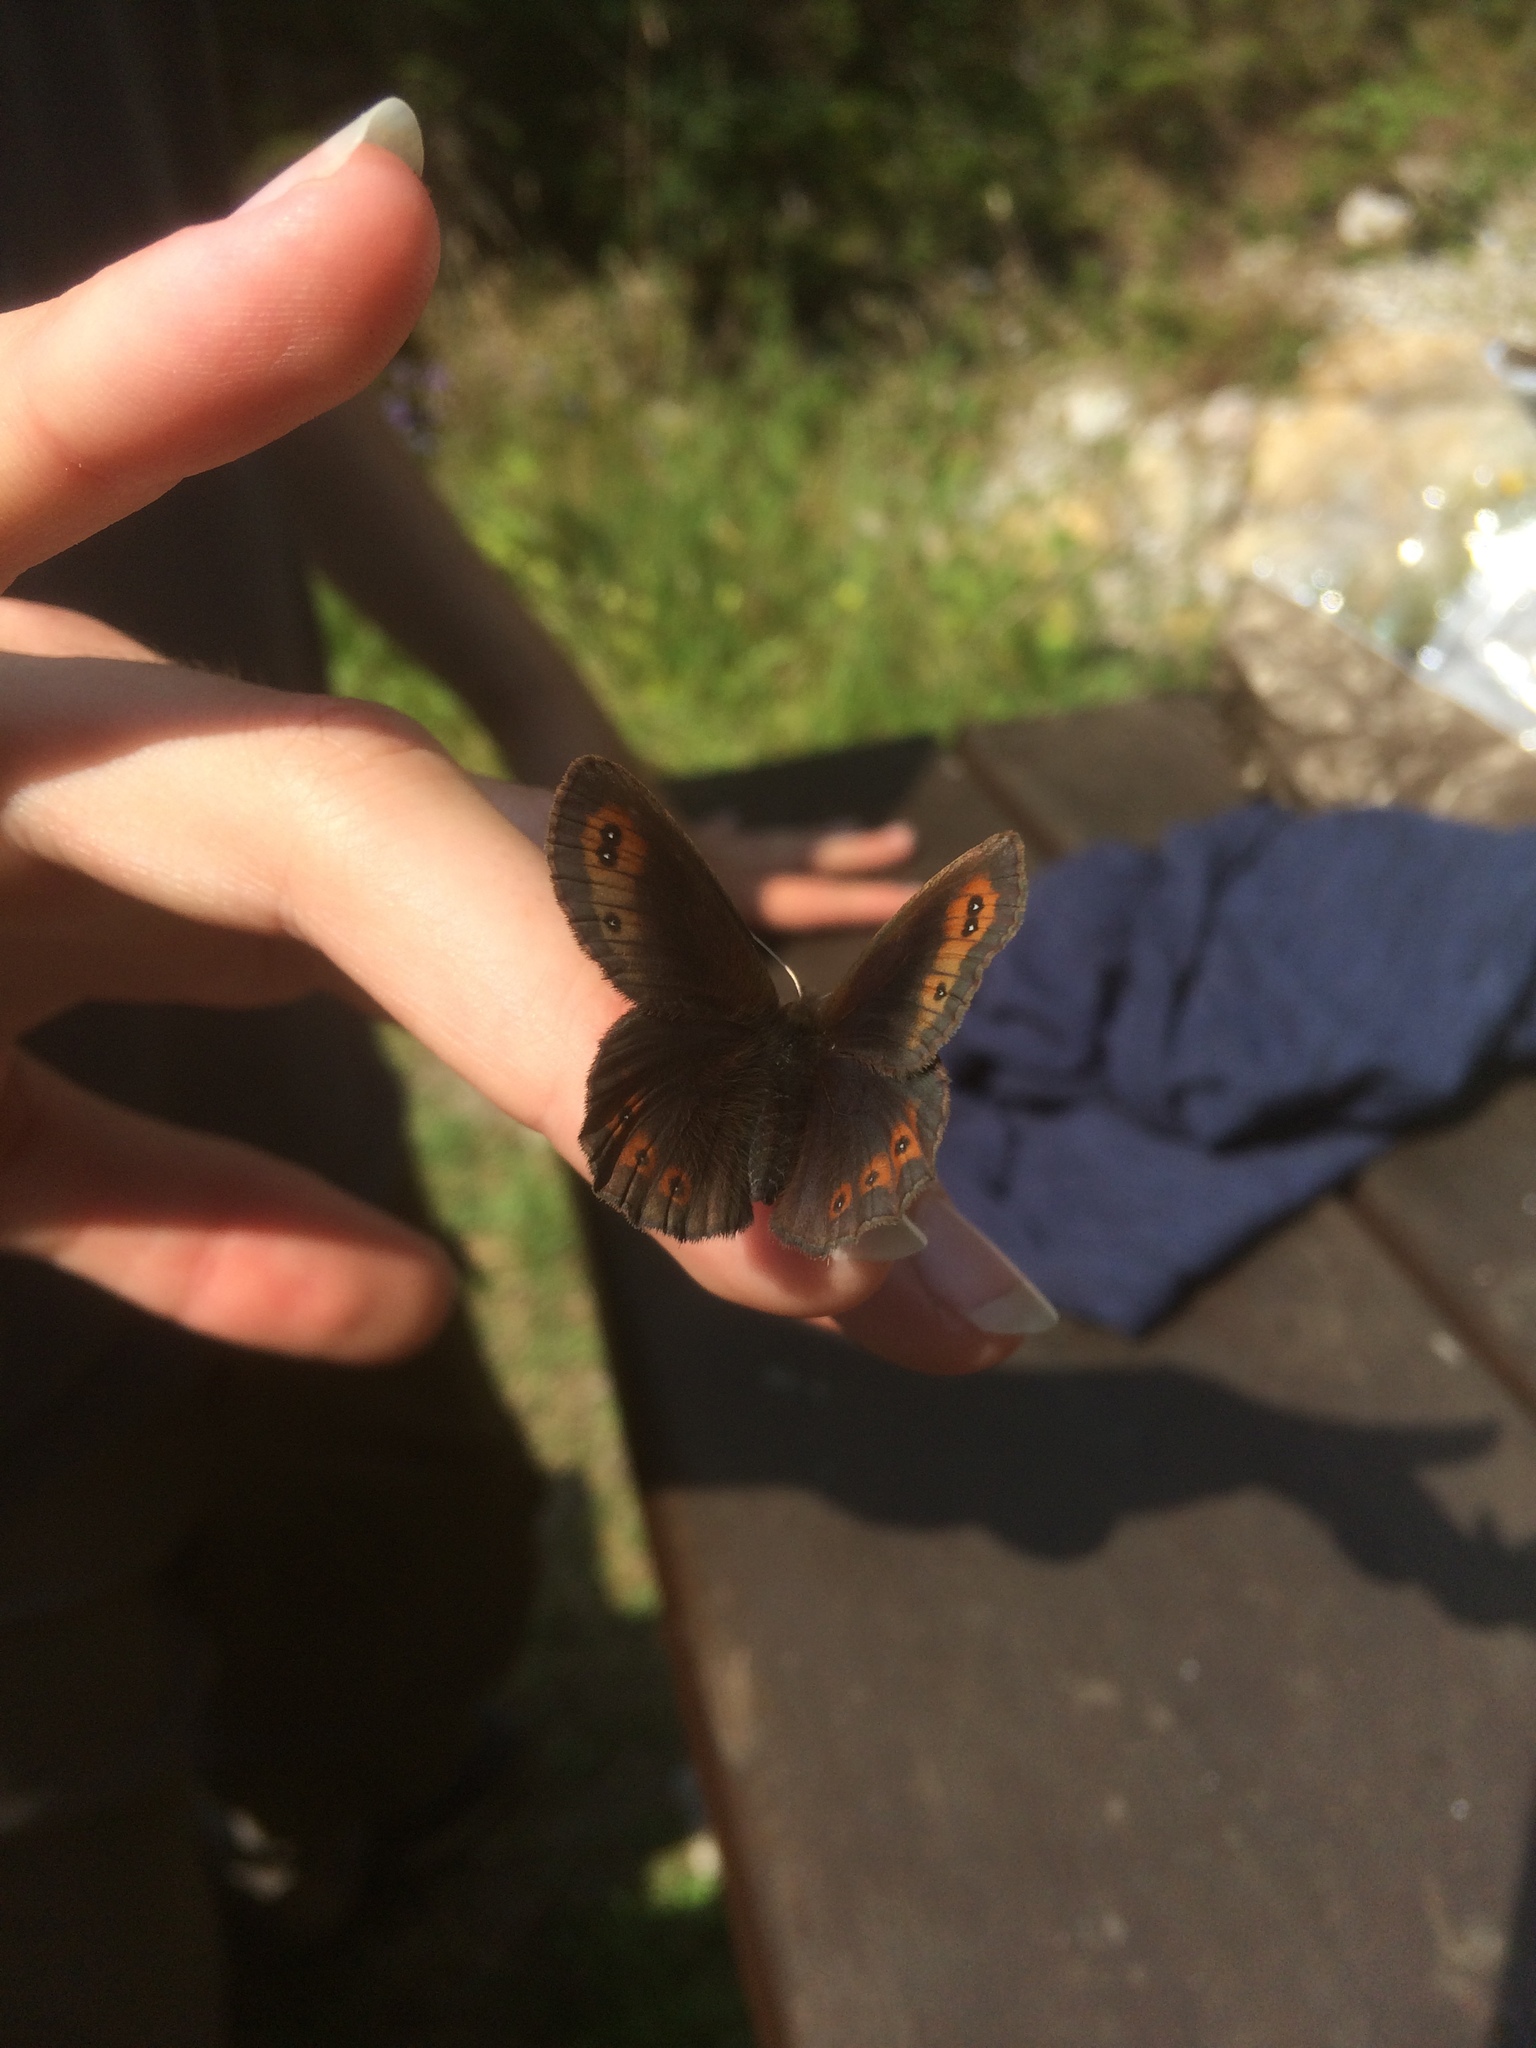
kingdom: Animalia
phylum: Arthropoda
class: Insecta
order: Lepidoptera
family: Nymphalidae
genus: Erebia
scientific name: Erebia aethiops
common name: Scotch argus
